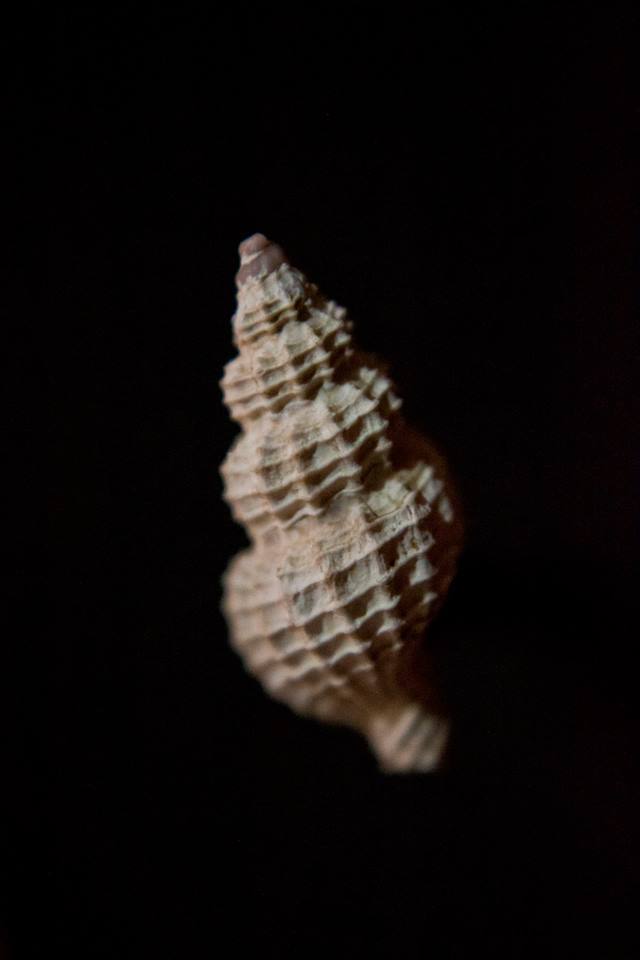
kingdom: Animalia
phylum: Mollusca
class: Gastropoda
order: Neogastropoda
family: Raphitomidae
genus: Raphitoma
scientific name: Raphitoma horrida
